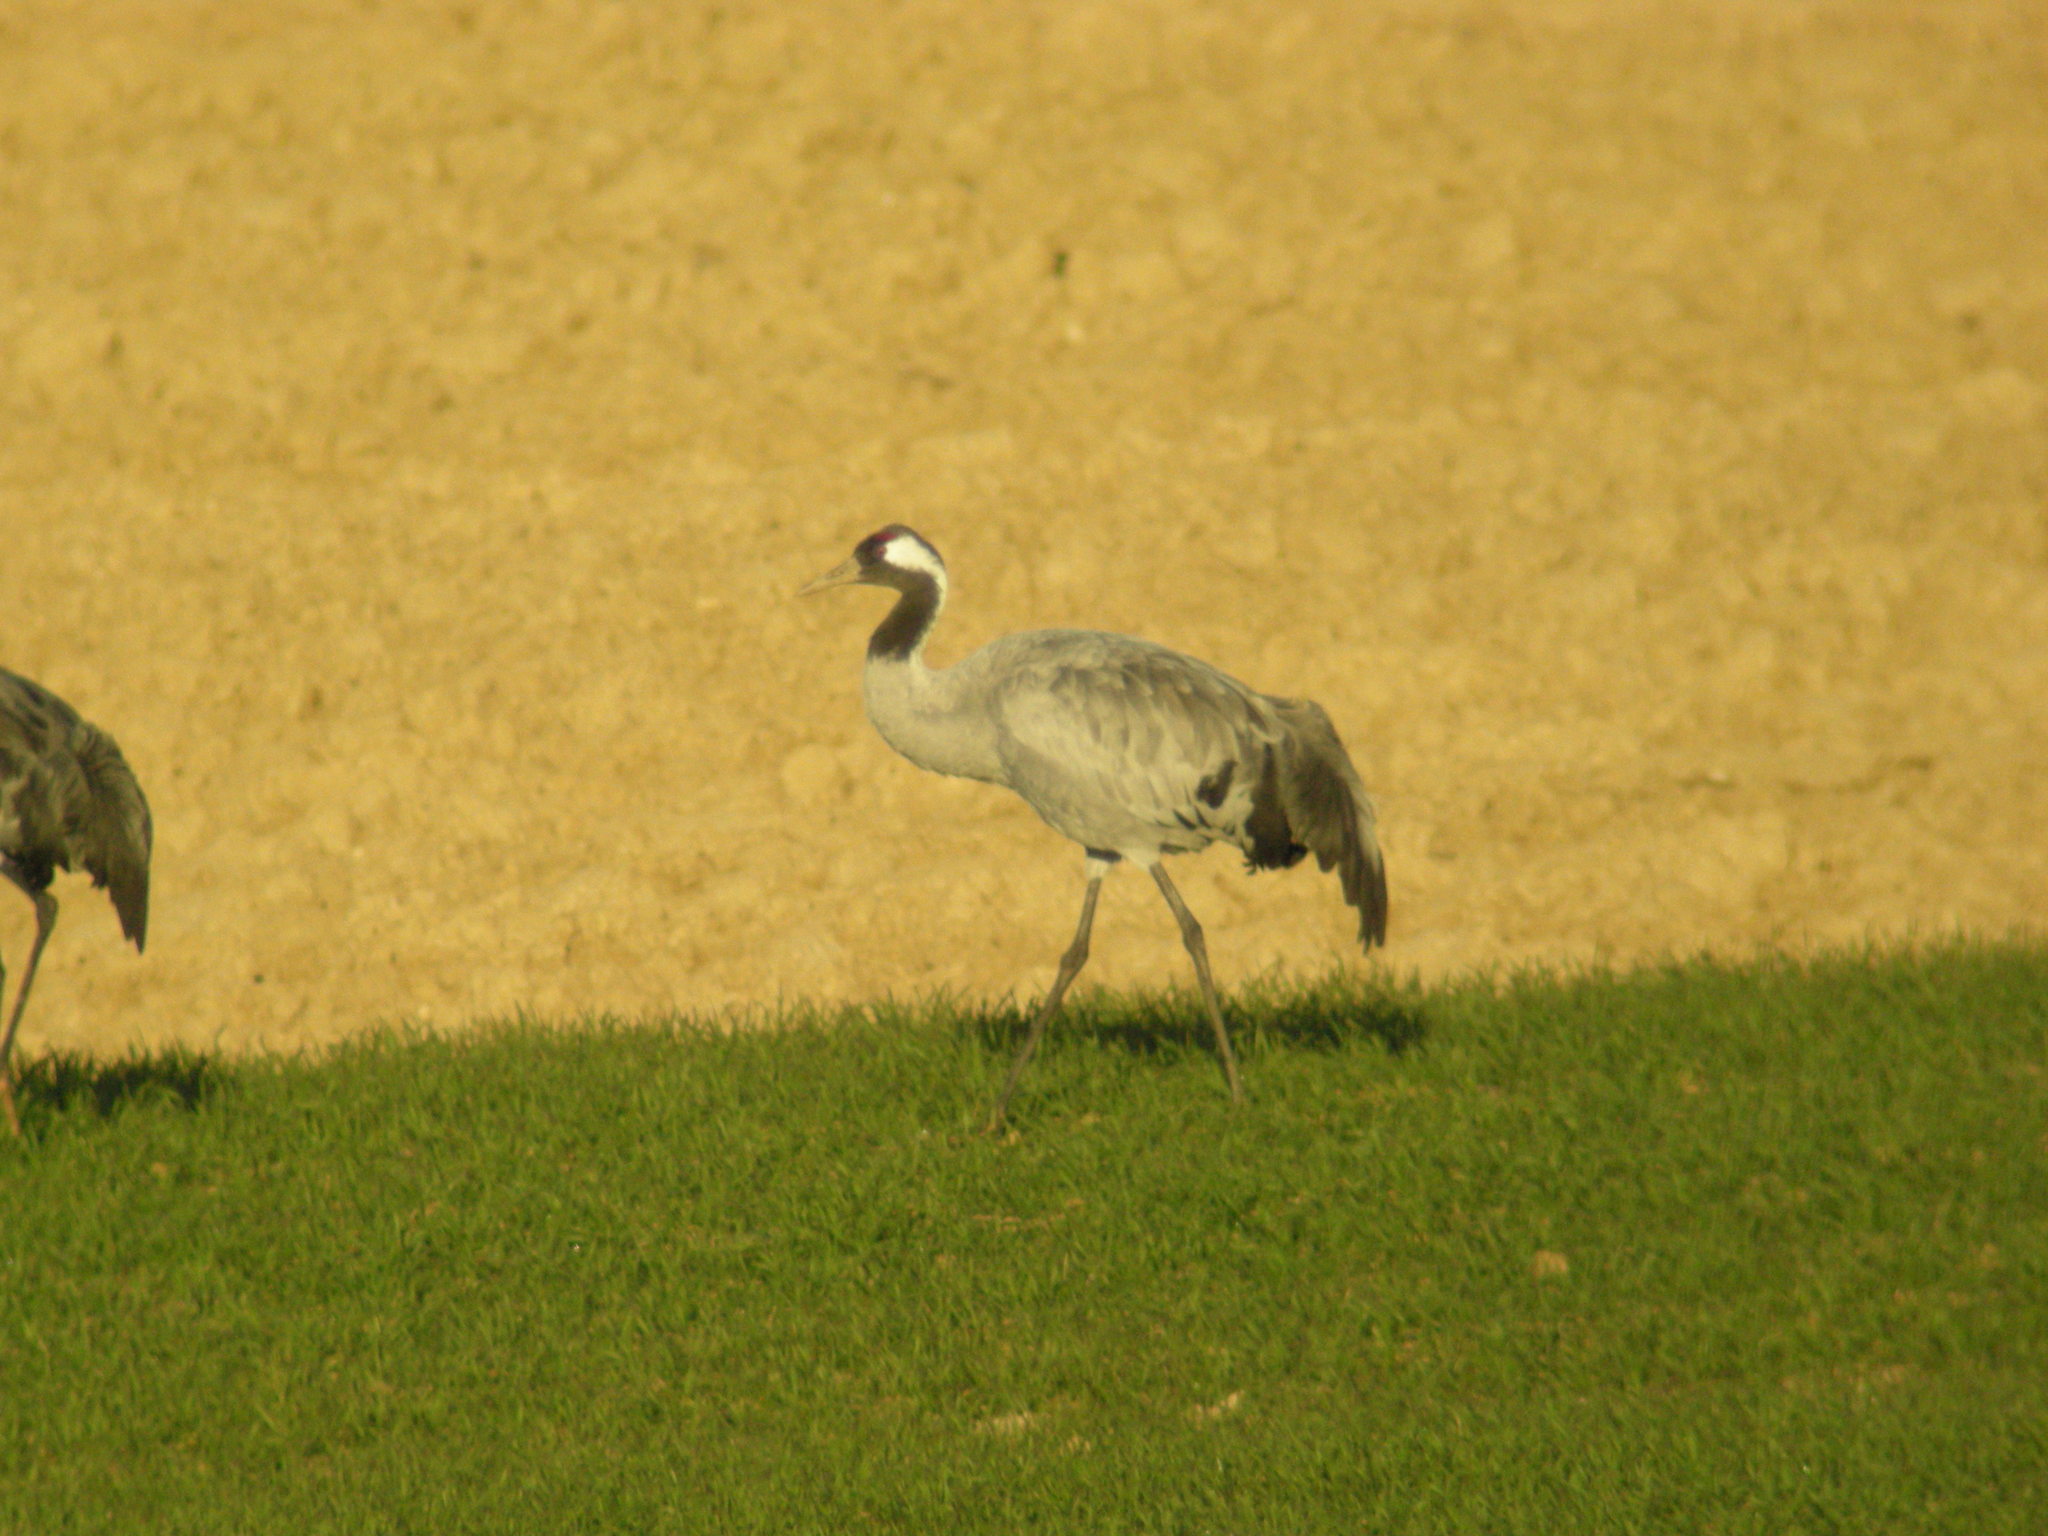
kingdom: Animalia
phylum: Chordata
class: Aves
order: Gruiformes
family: Gruidae
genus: Grus
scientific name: Grus grus
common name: Common crane
